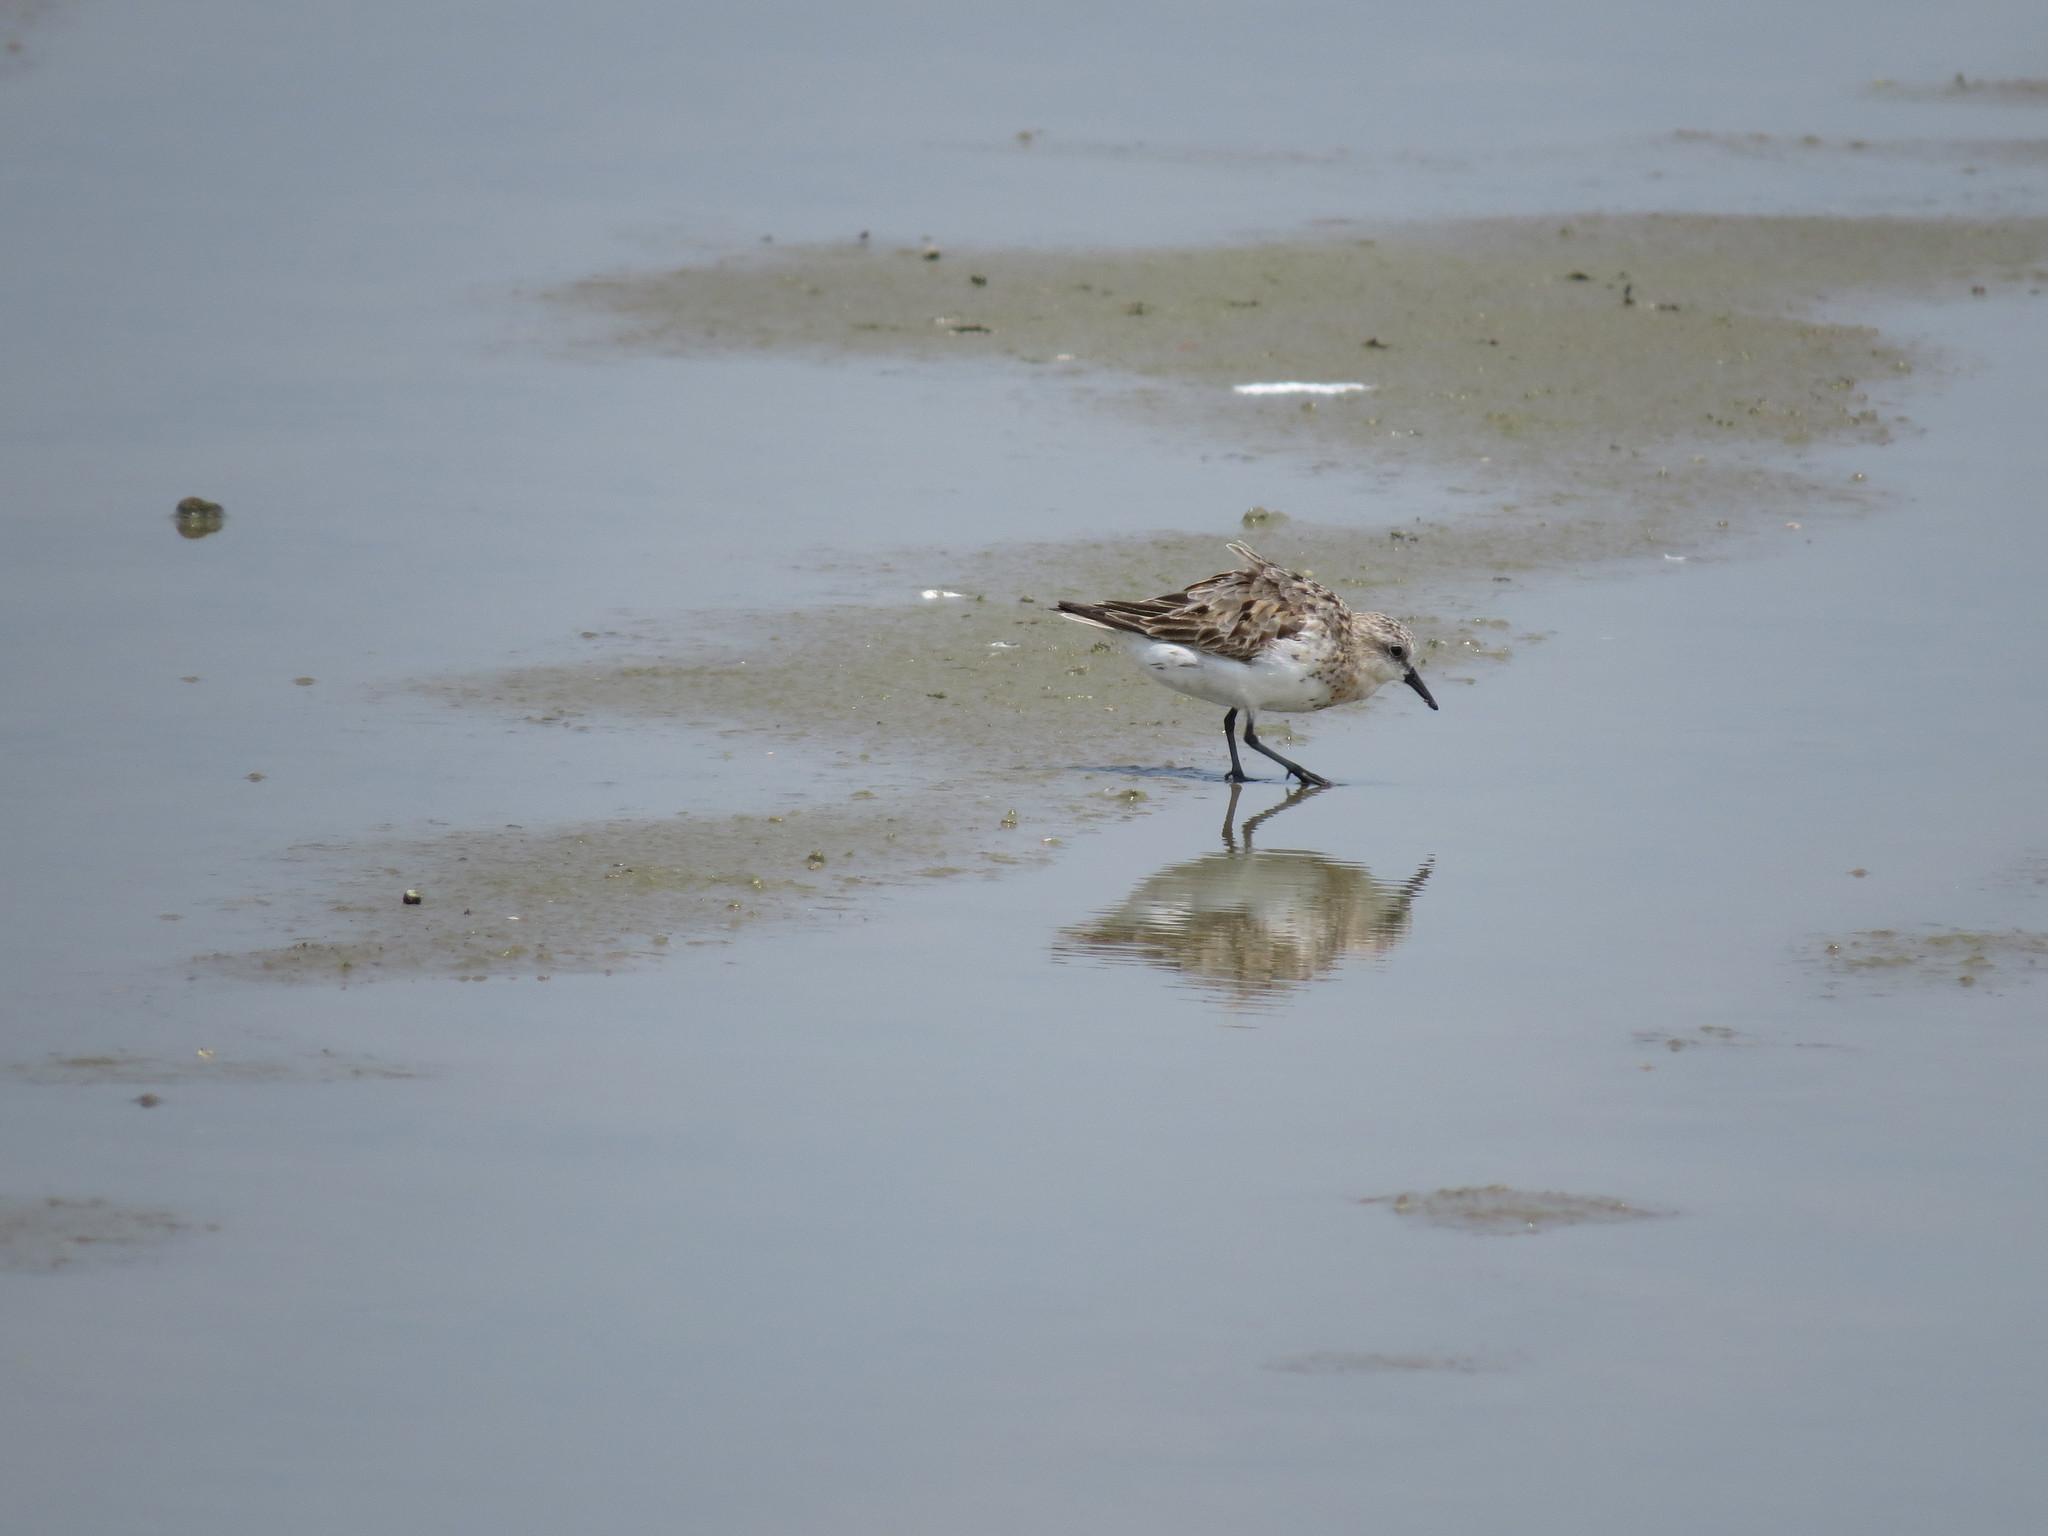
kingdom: Animalia
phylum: Chordata
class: Aves
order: Charadriiformes
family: Scolopacidae
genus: Calidris
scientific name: Calidris ruficollis
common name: Red-necked stint
